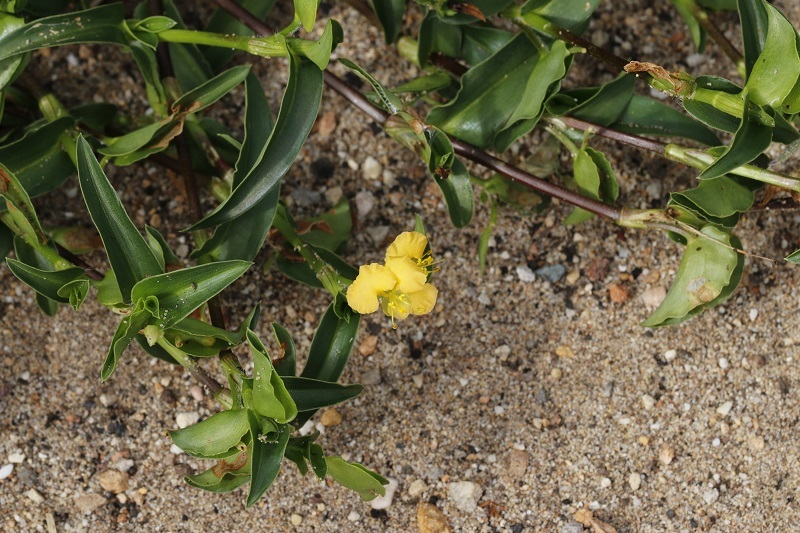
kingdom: Plantae
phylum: Tracheophyta
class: Liliopsida
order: Commelinales
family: Commelinaceae
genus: Commelina
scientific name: Commelina africana
